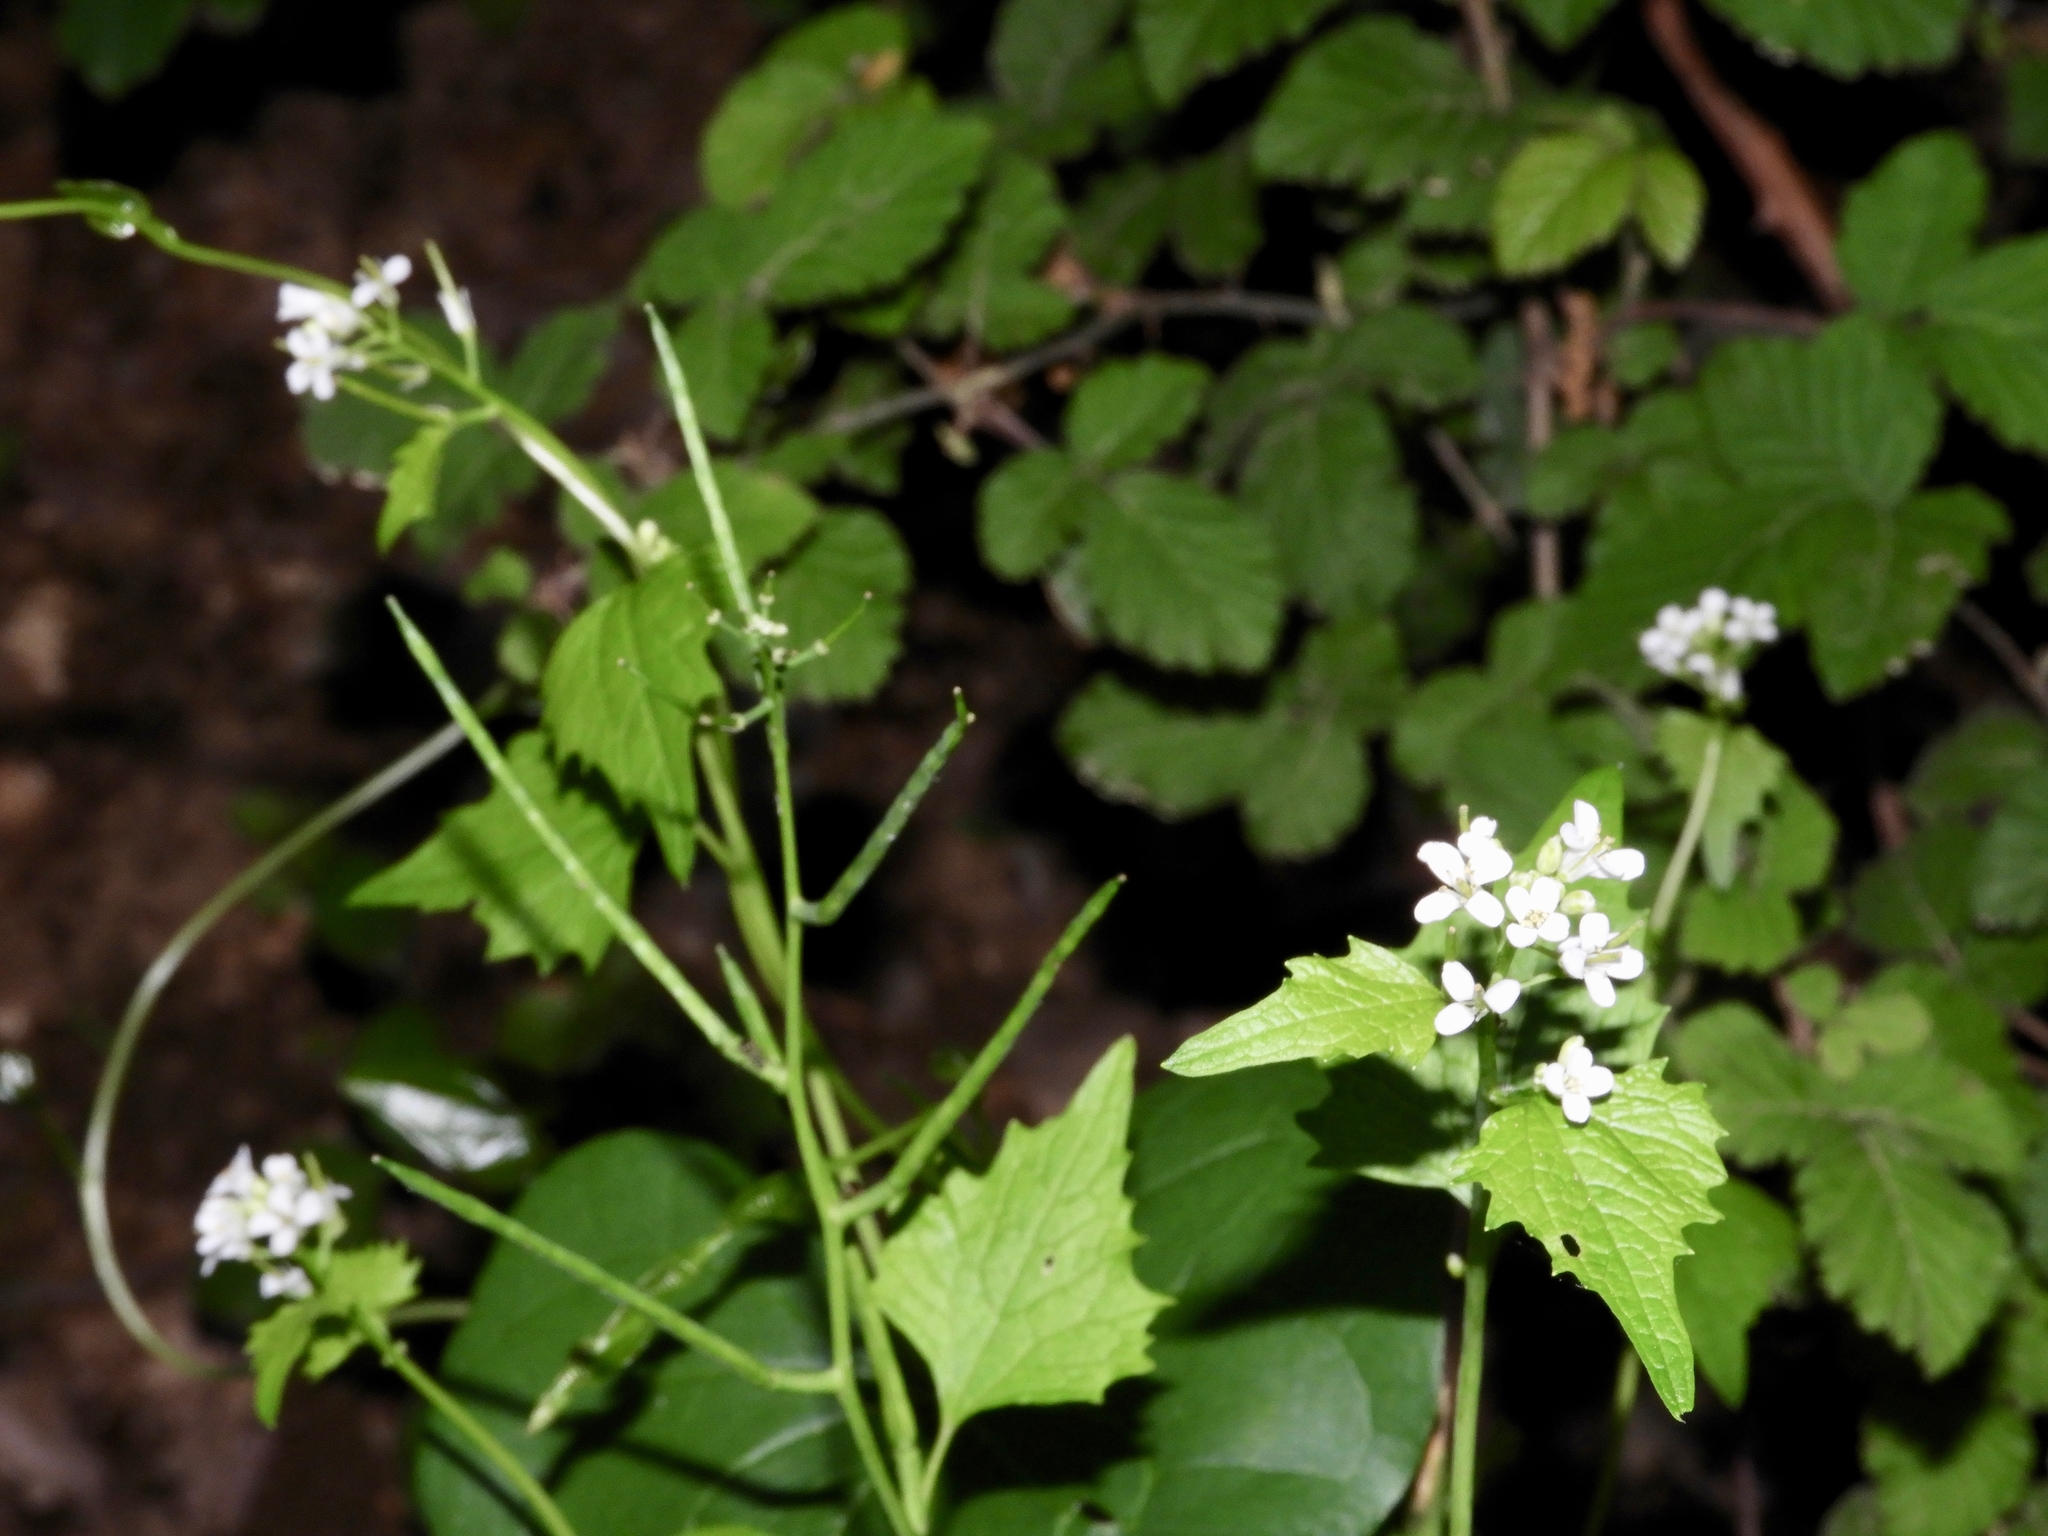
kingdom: Plantae
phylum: Tracheophyta
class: Magnoliopsida
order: Brassicales
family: Brassicaceae
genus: Alliaria
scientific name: Alliaria petiolata
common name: Garlic mustard
